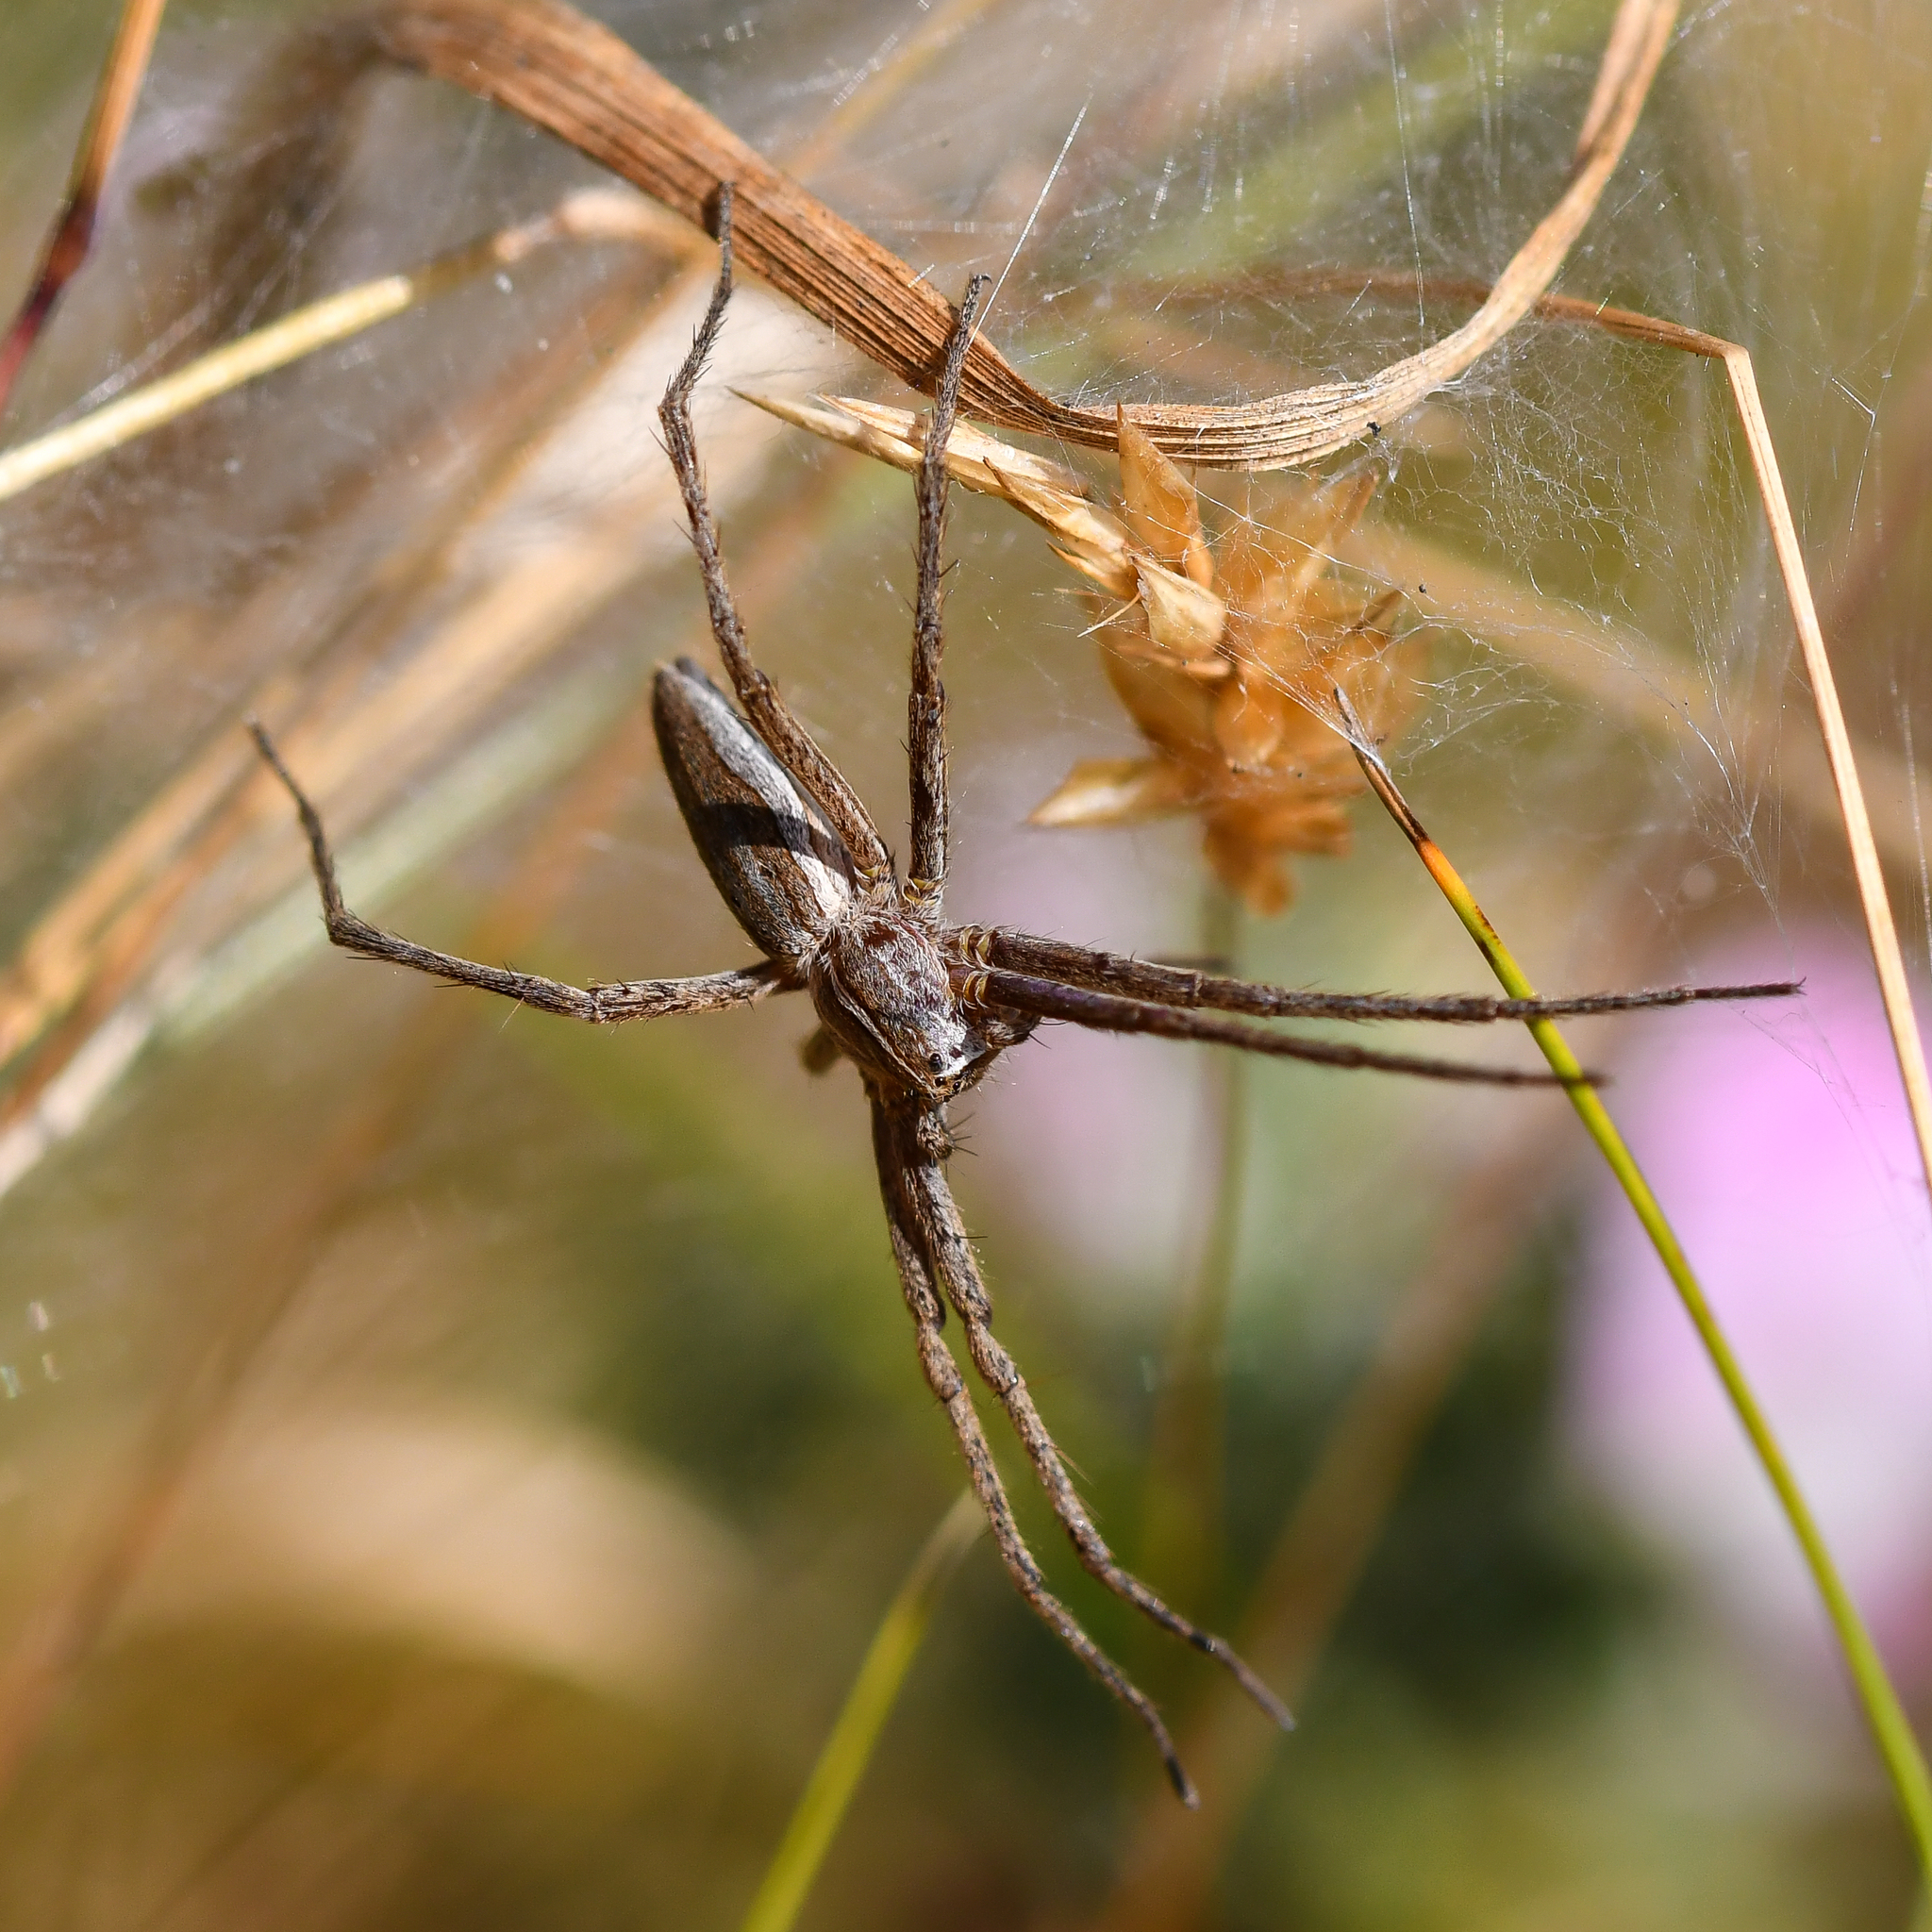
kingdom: Animalia
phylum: Arthropoda
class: Arachnida
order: Araneae
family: Pisauridae
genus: Pisaura
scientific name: Pisaura mirabilis
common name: Tent spider
